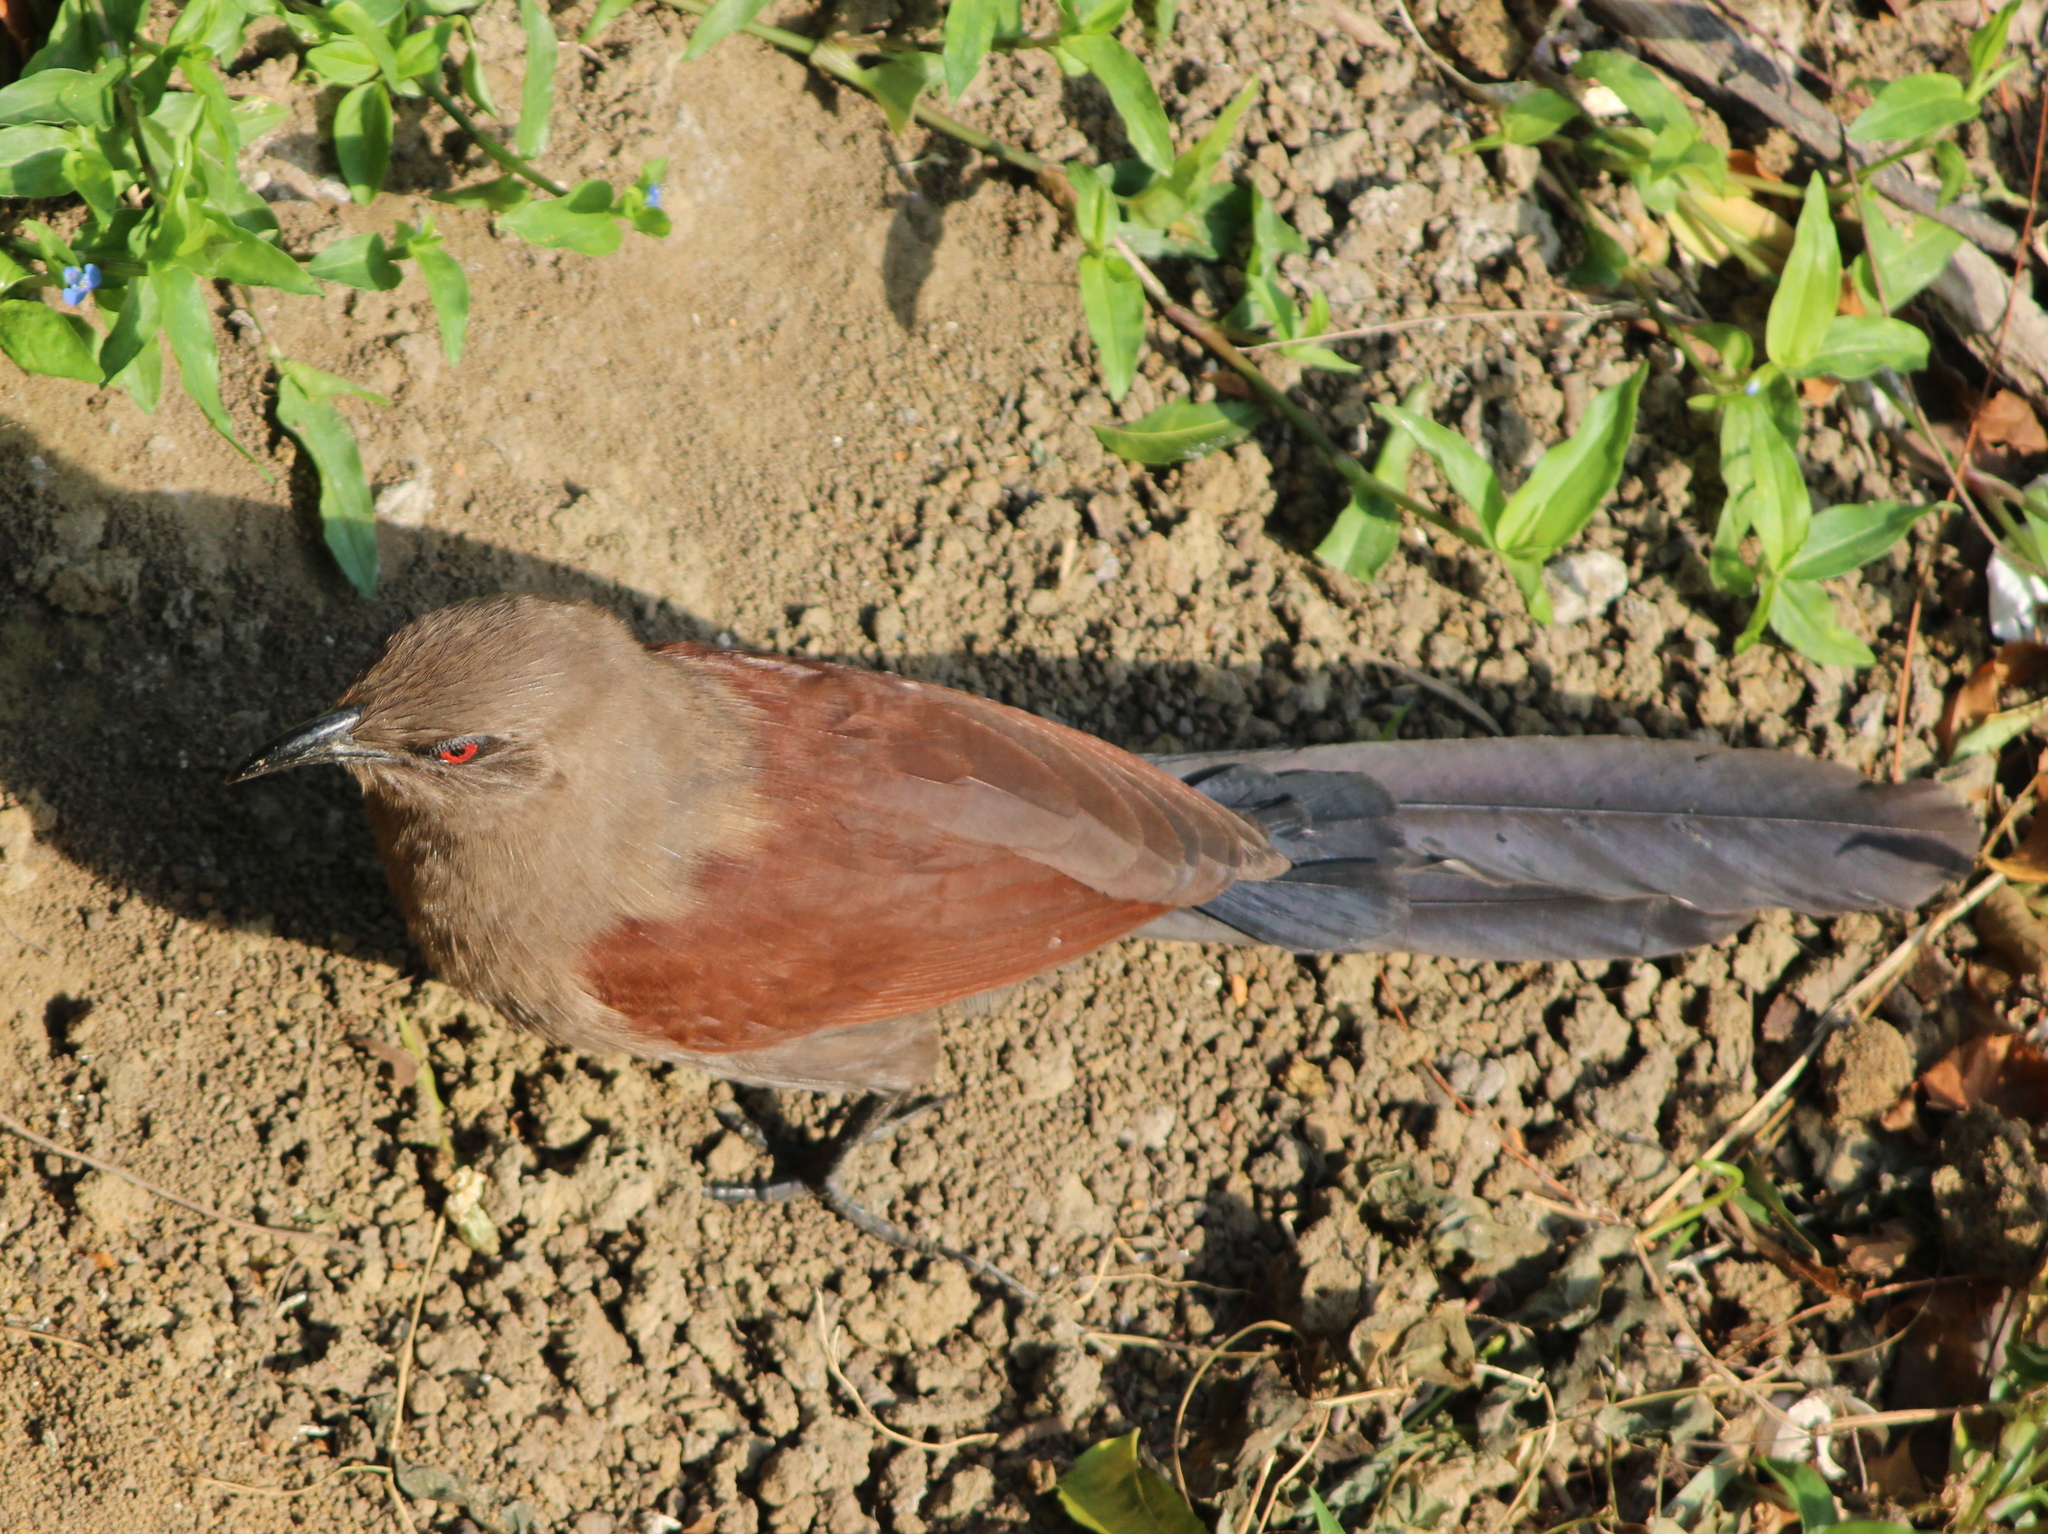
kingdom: Animalia
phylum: Chordata
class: Aves
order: Cuculiformes
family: Cuculidae
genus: Centropus
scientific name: Centropus andamanensis
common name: Andaman coucal
